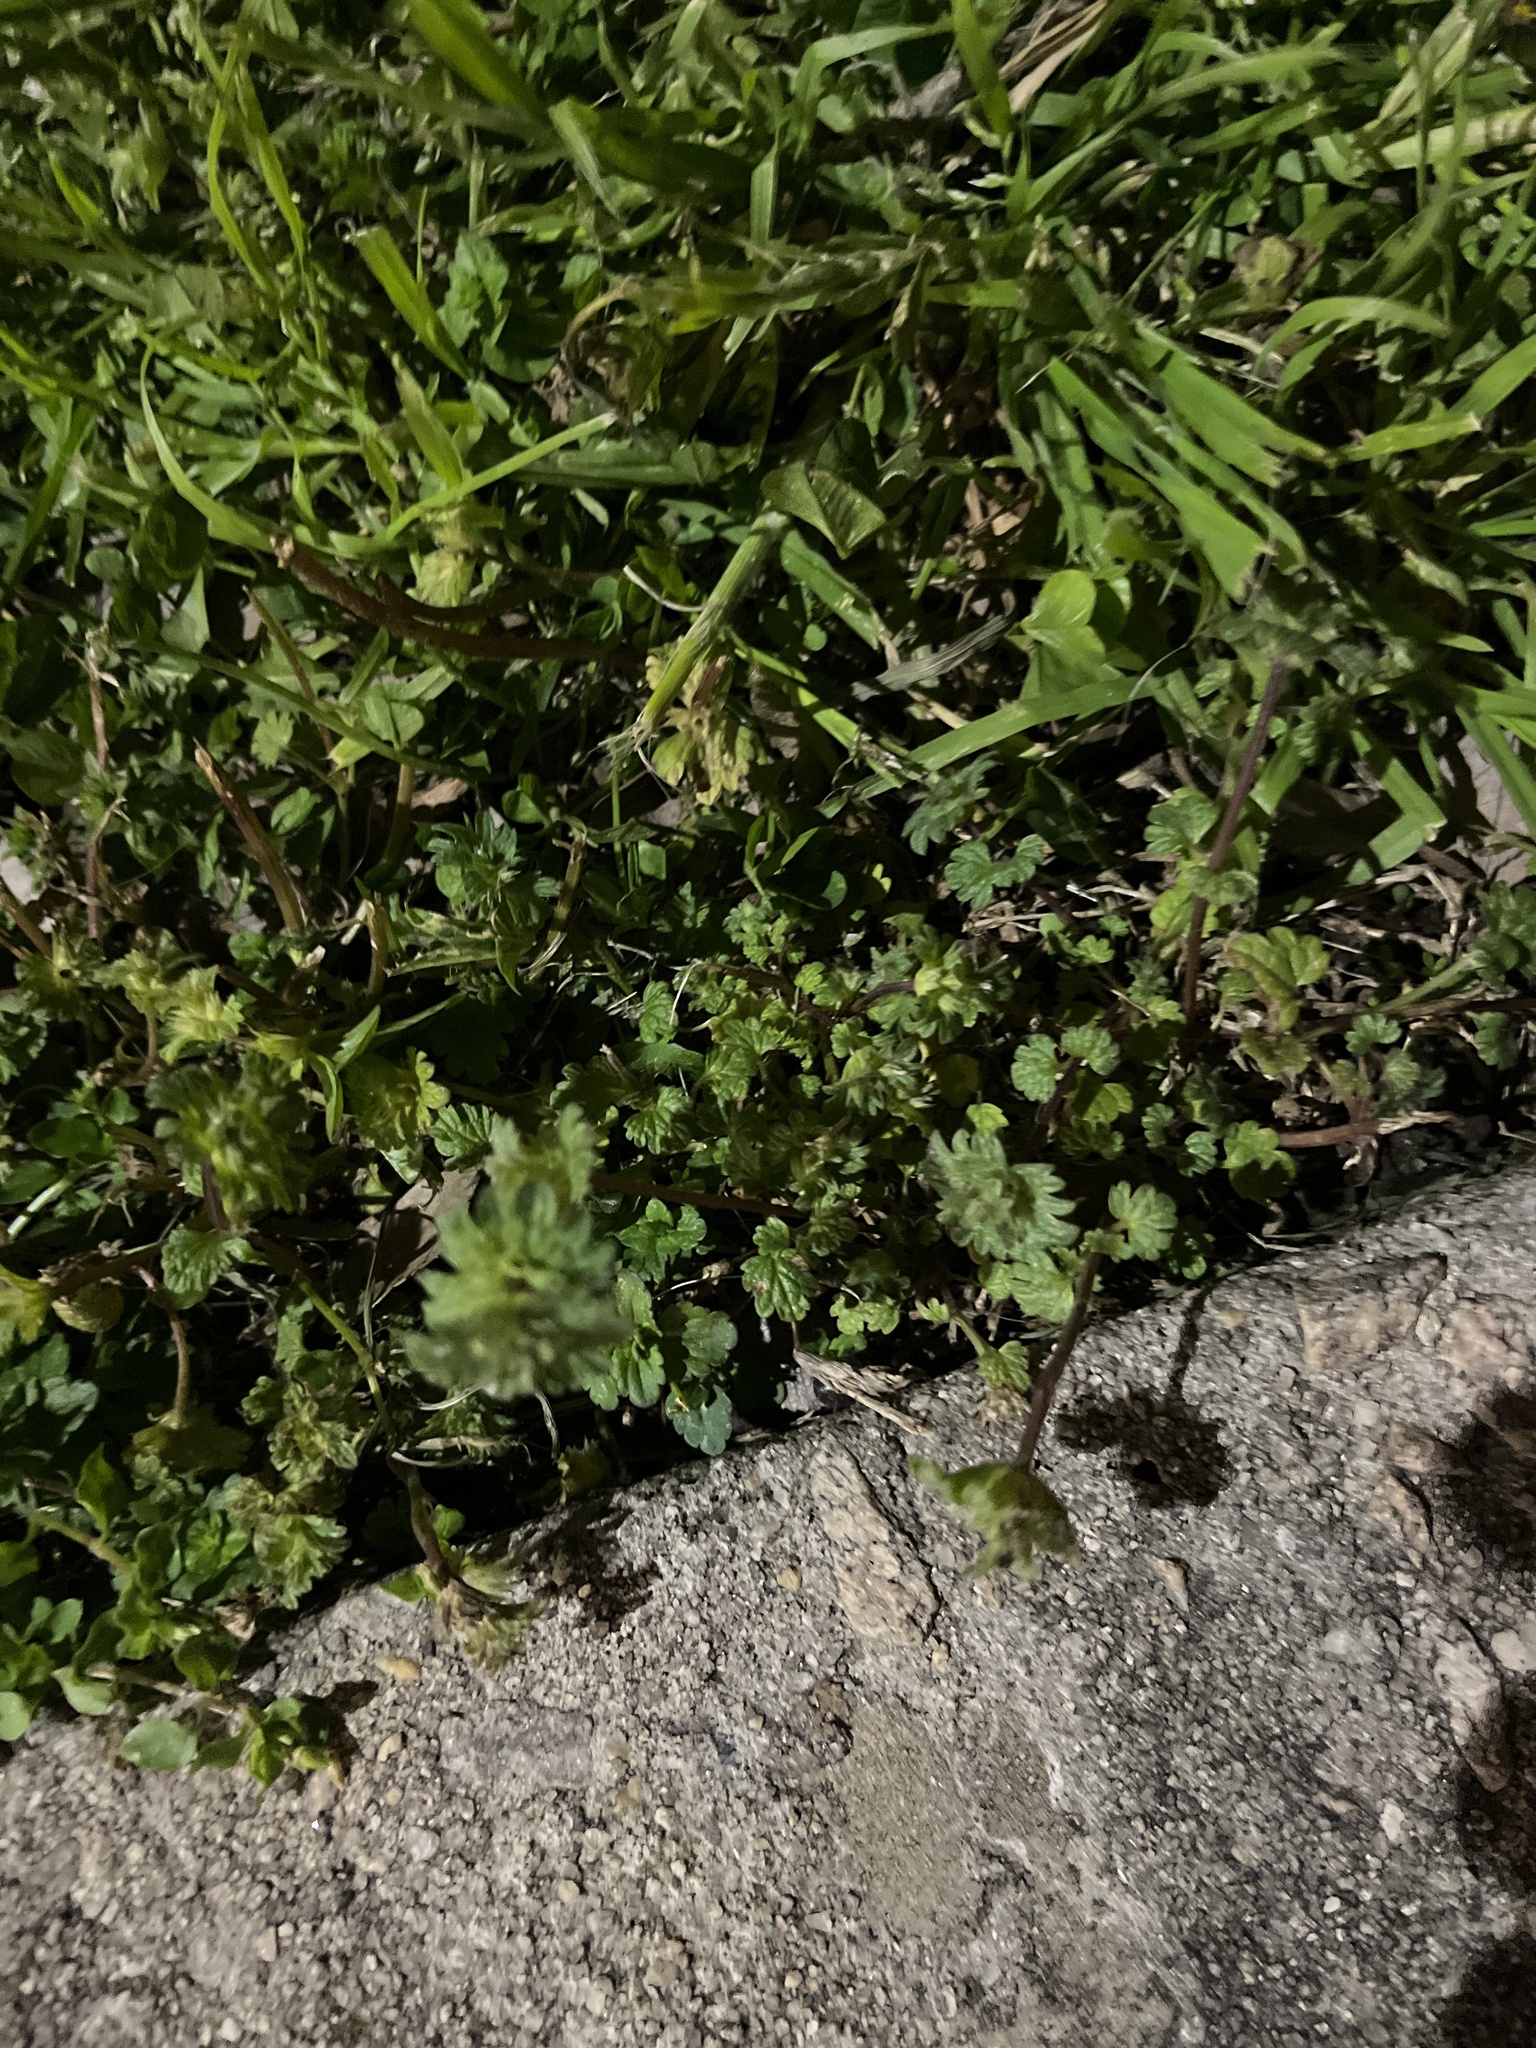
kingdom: Plantae
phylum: Tracheophyta
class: Magnoliopsida
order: Lamiales
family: Lamiaceae
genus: Lamium
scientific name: Lamium amplexicaule
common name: Henbit dead-nettle
